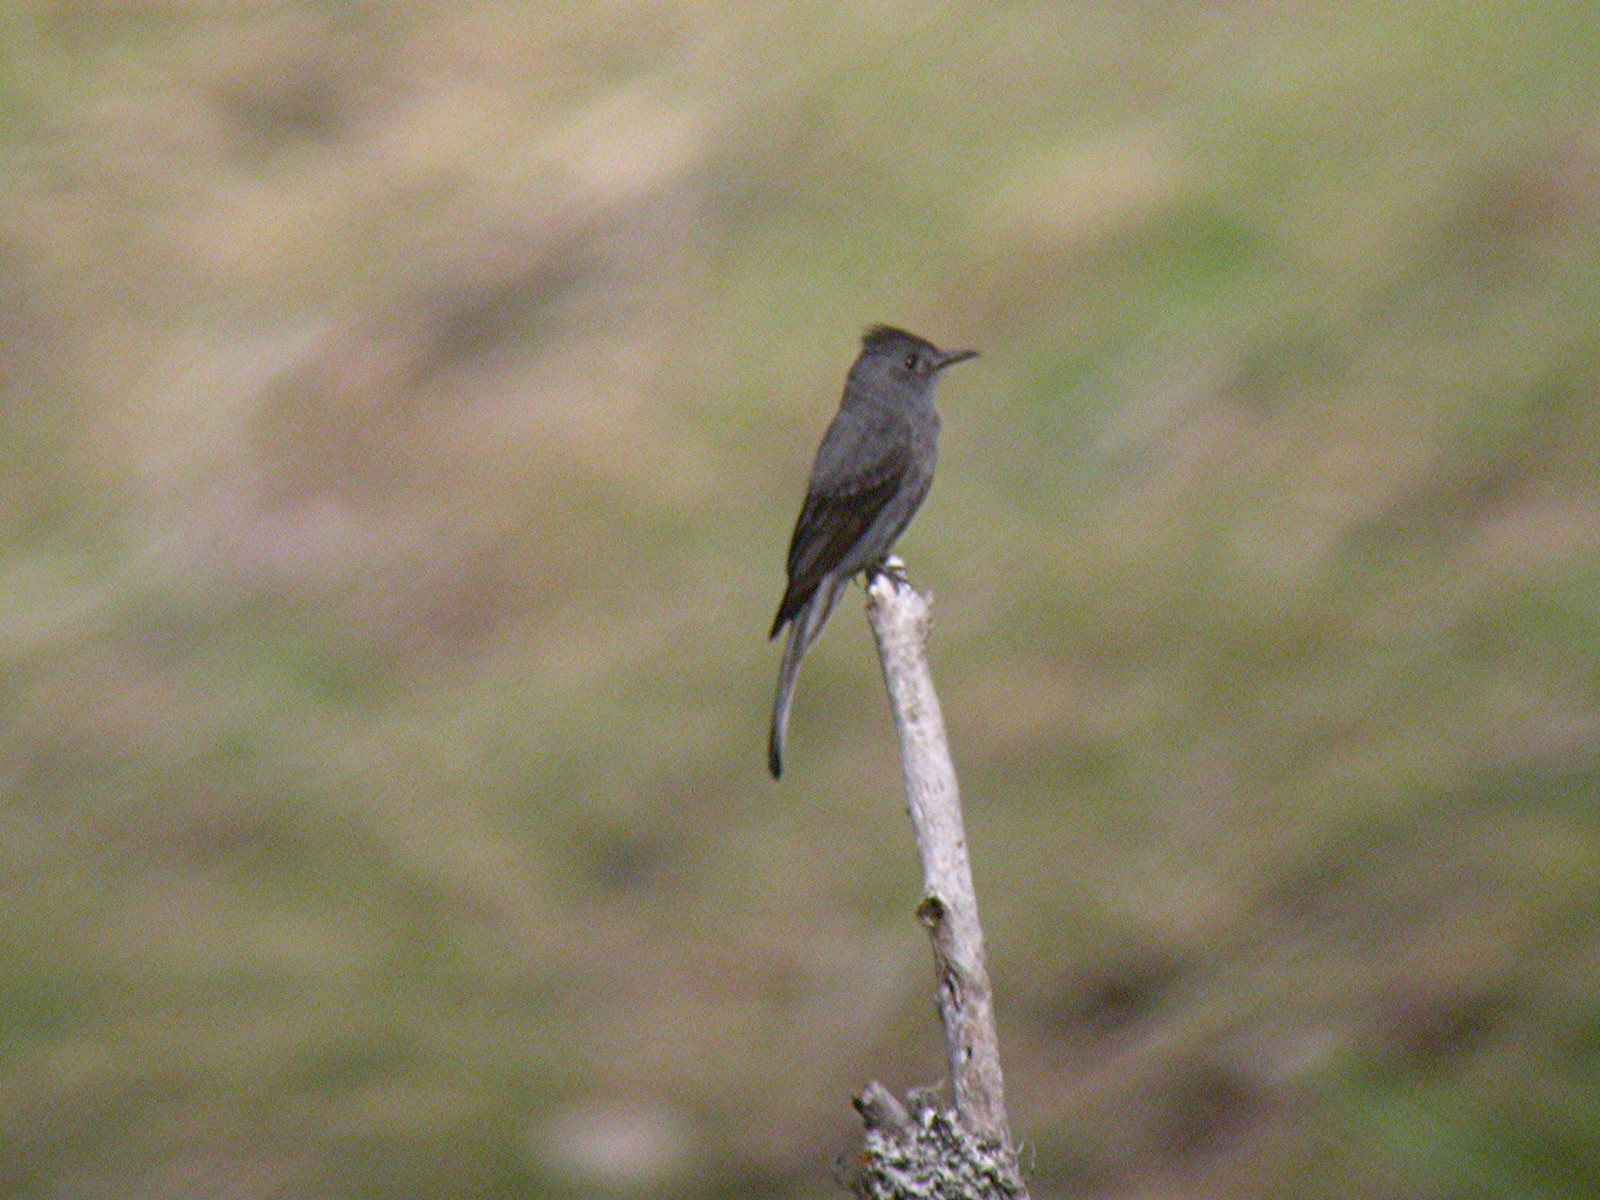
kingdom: Animalia
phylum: Chordata
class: Aves
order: Passeriformes
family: Tyrannidae
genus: Contopus
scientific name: Contopus fumigatus
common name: Smoke-colored pewee
